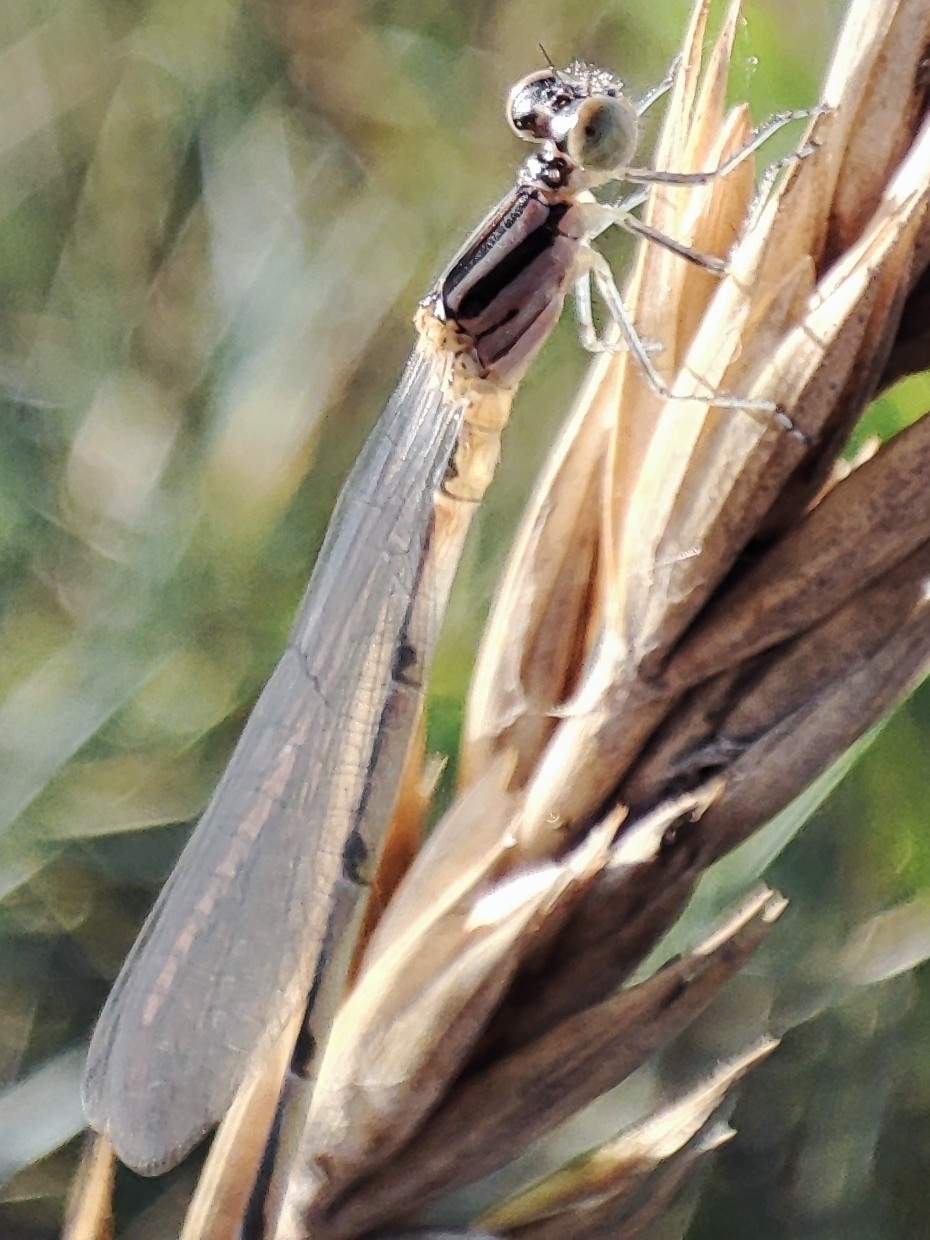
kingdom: Animalia
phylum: Arthropoda
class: Insecta
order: Odonata
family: Coenagrionidae
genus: Erythromma
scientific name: Erythromma lindenii
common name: Blue-eye
